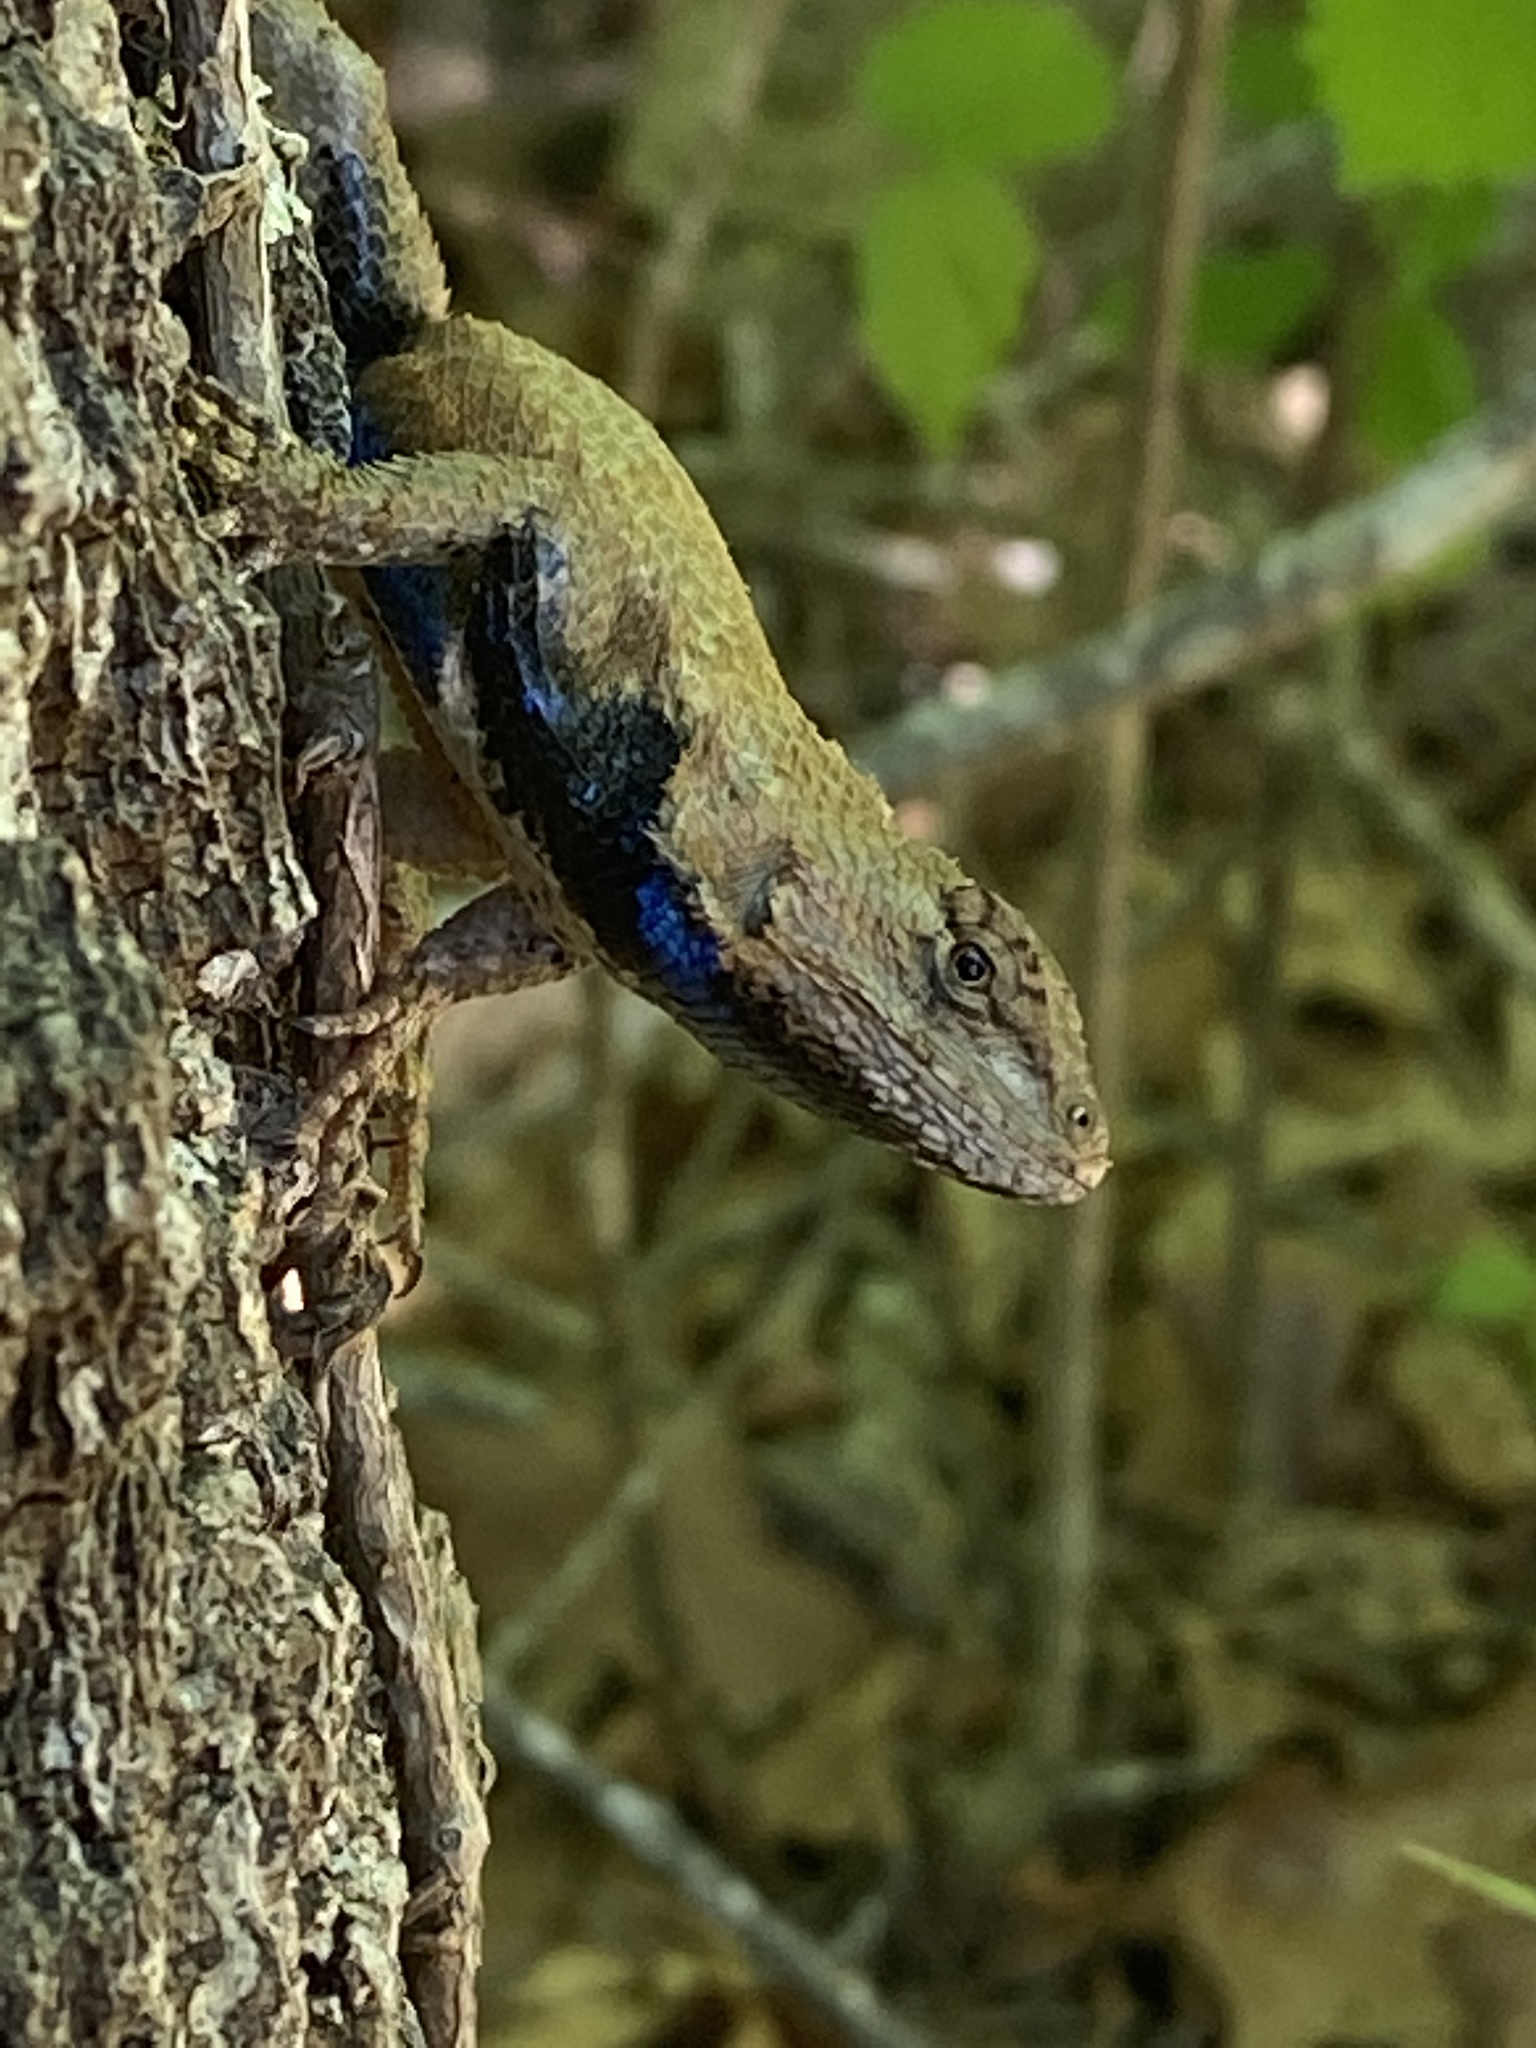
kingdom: Animalia
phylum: Chordata
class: Squamata
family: Phrynosomatidae
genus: Sceloporus
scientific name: Sceloporus undulatus
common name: Eastern fence lizard
